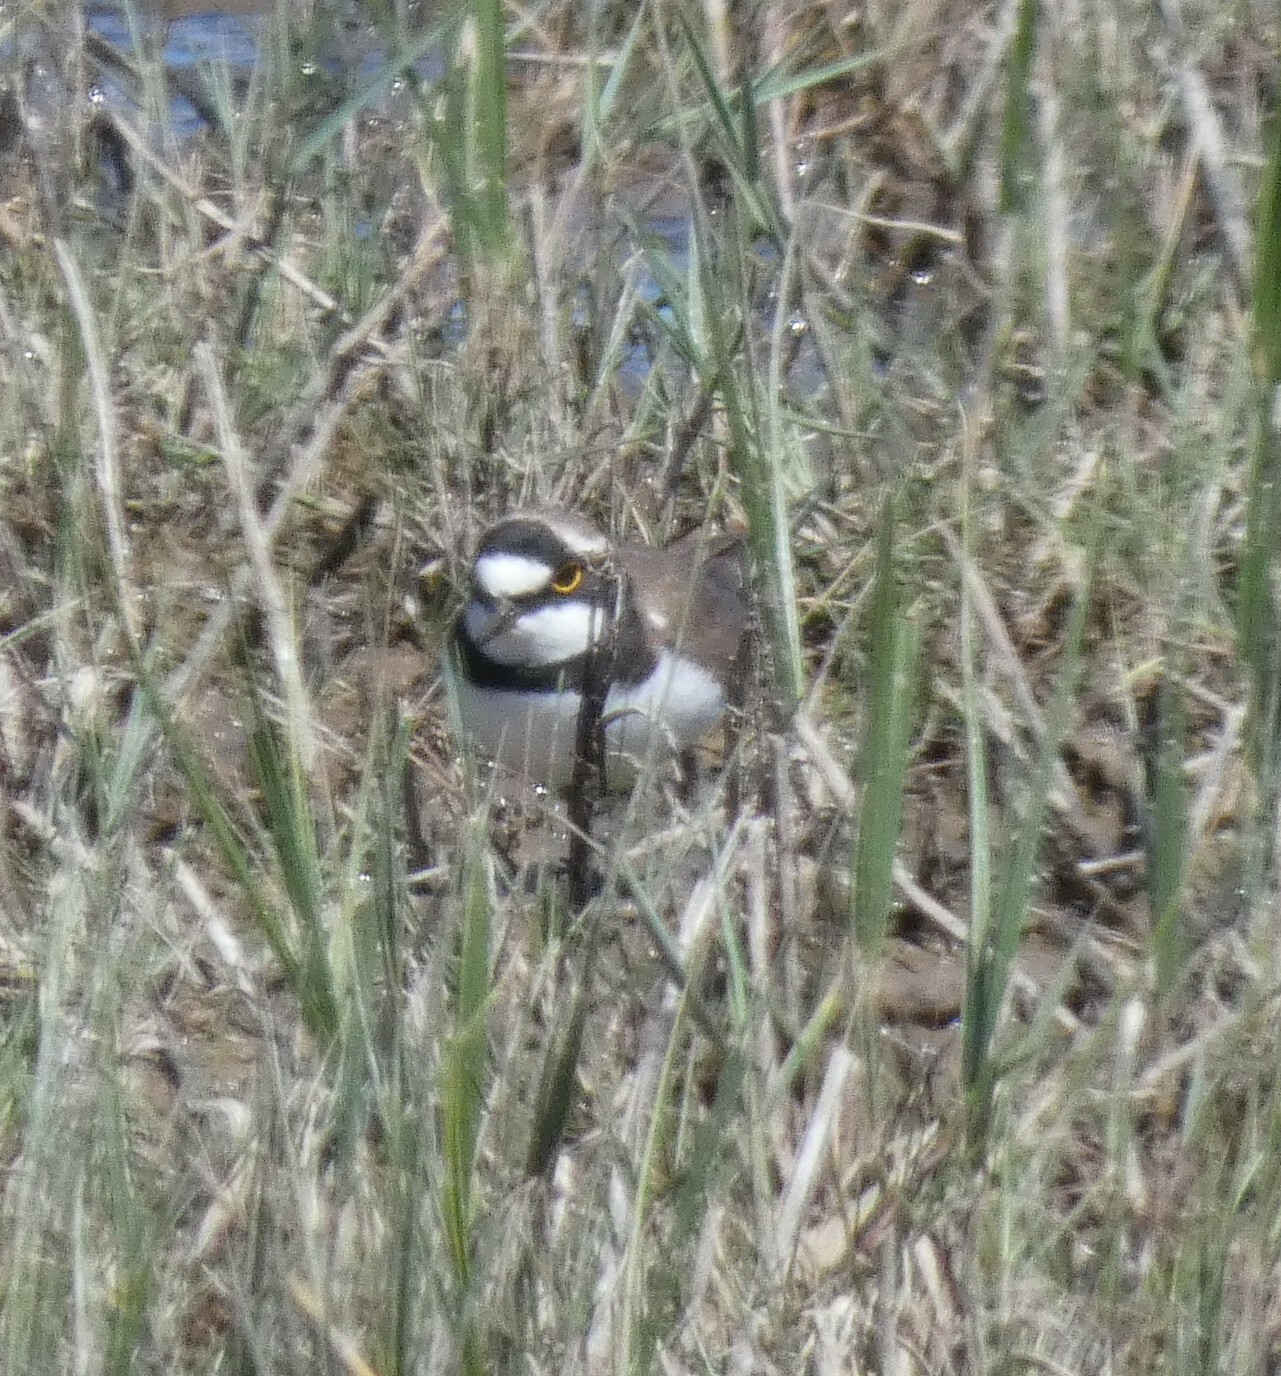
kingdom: Animalia
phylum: Chordata
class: Aves
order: Charadriiformes
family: Charadriidae
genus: Charadrius
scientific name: Charadrius dubius
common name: Little ringed plover
